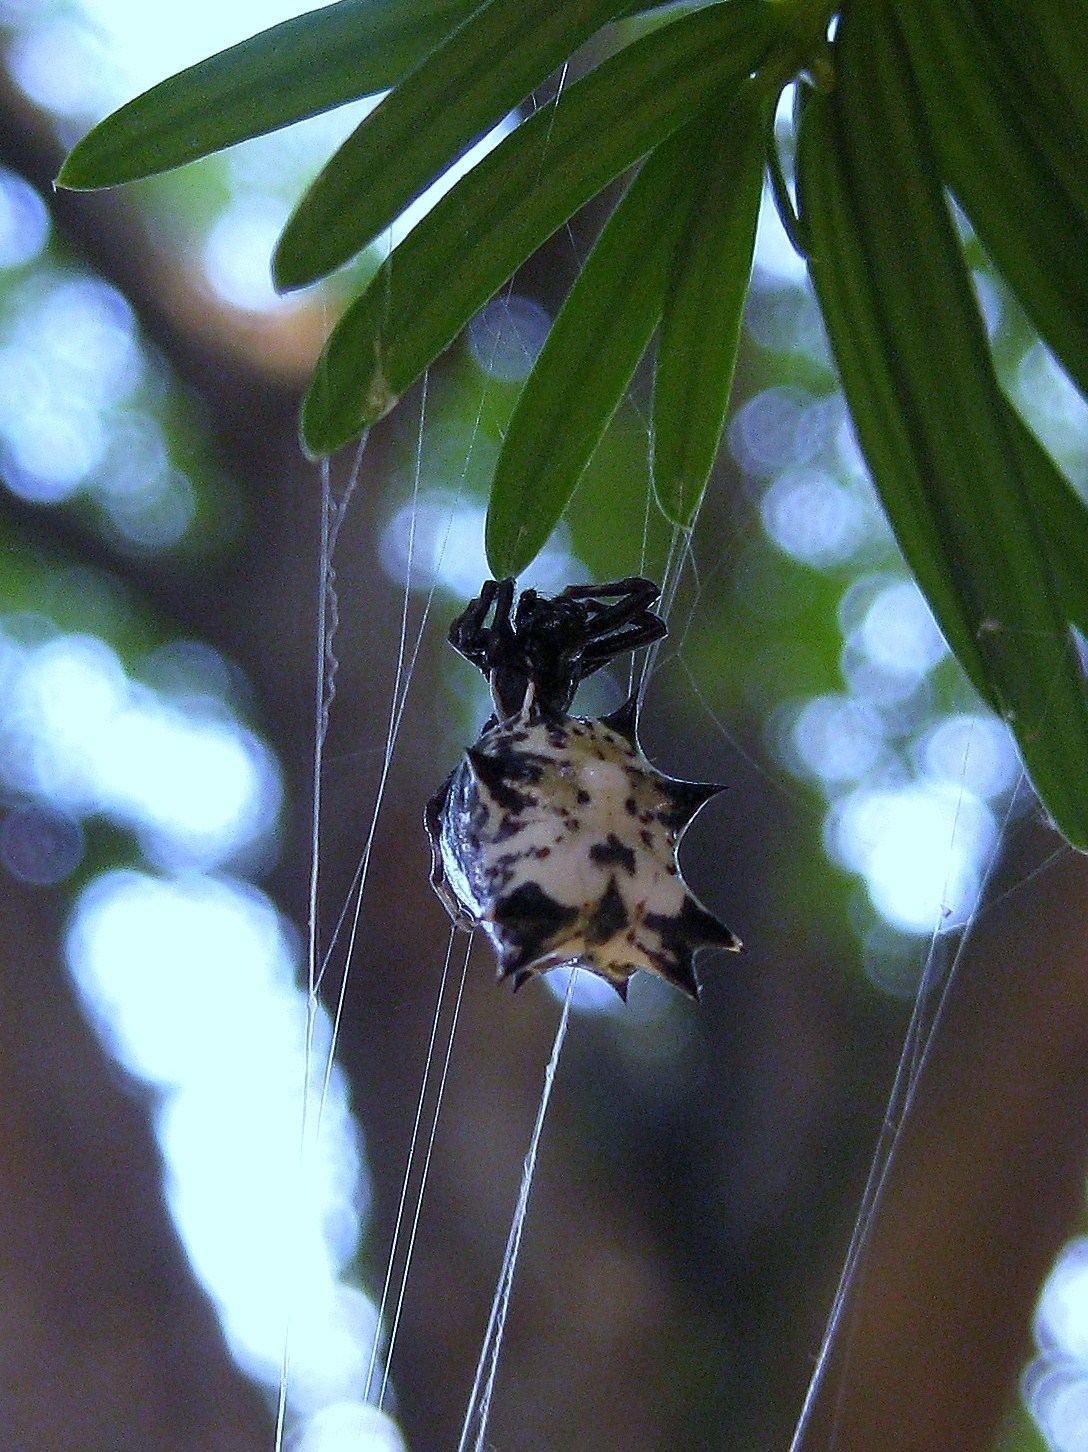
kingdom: Animalia
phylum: Arthropoda
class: Arachnida
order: Araneae
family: Araneidae
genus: Micrathena
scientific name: Micrathena gracilis
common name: Orb weavers
